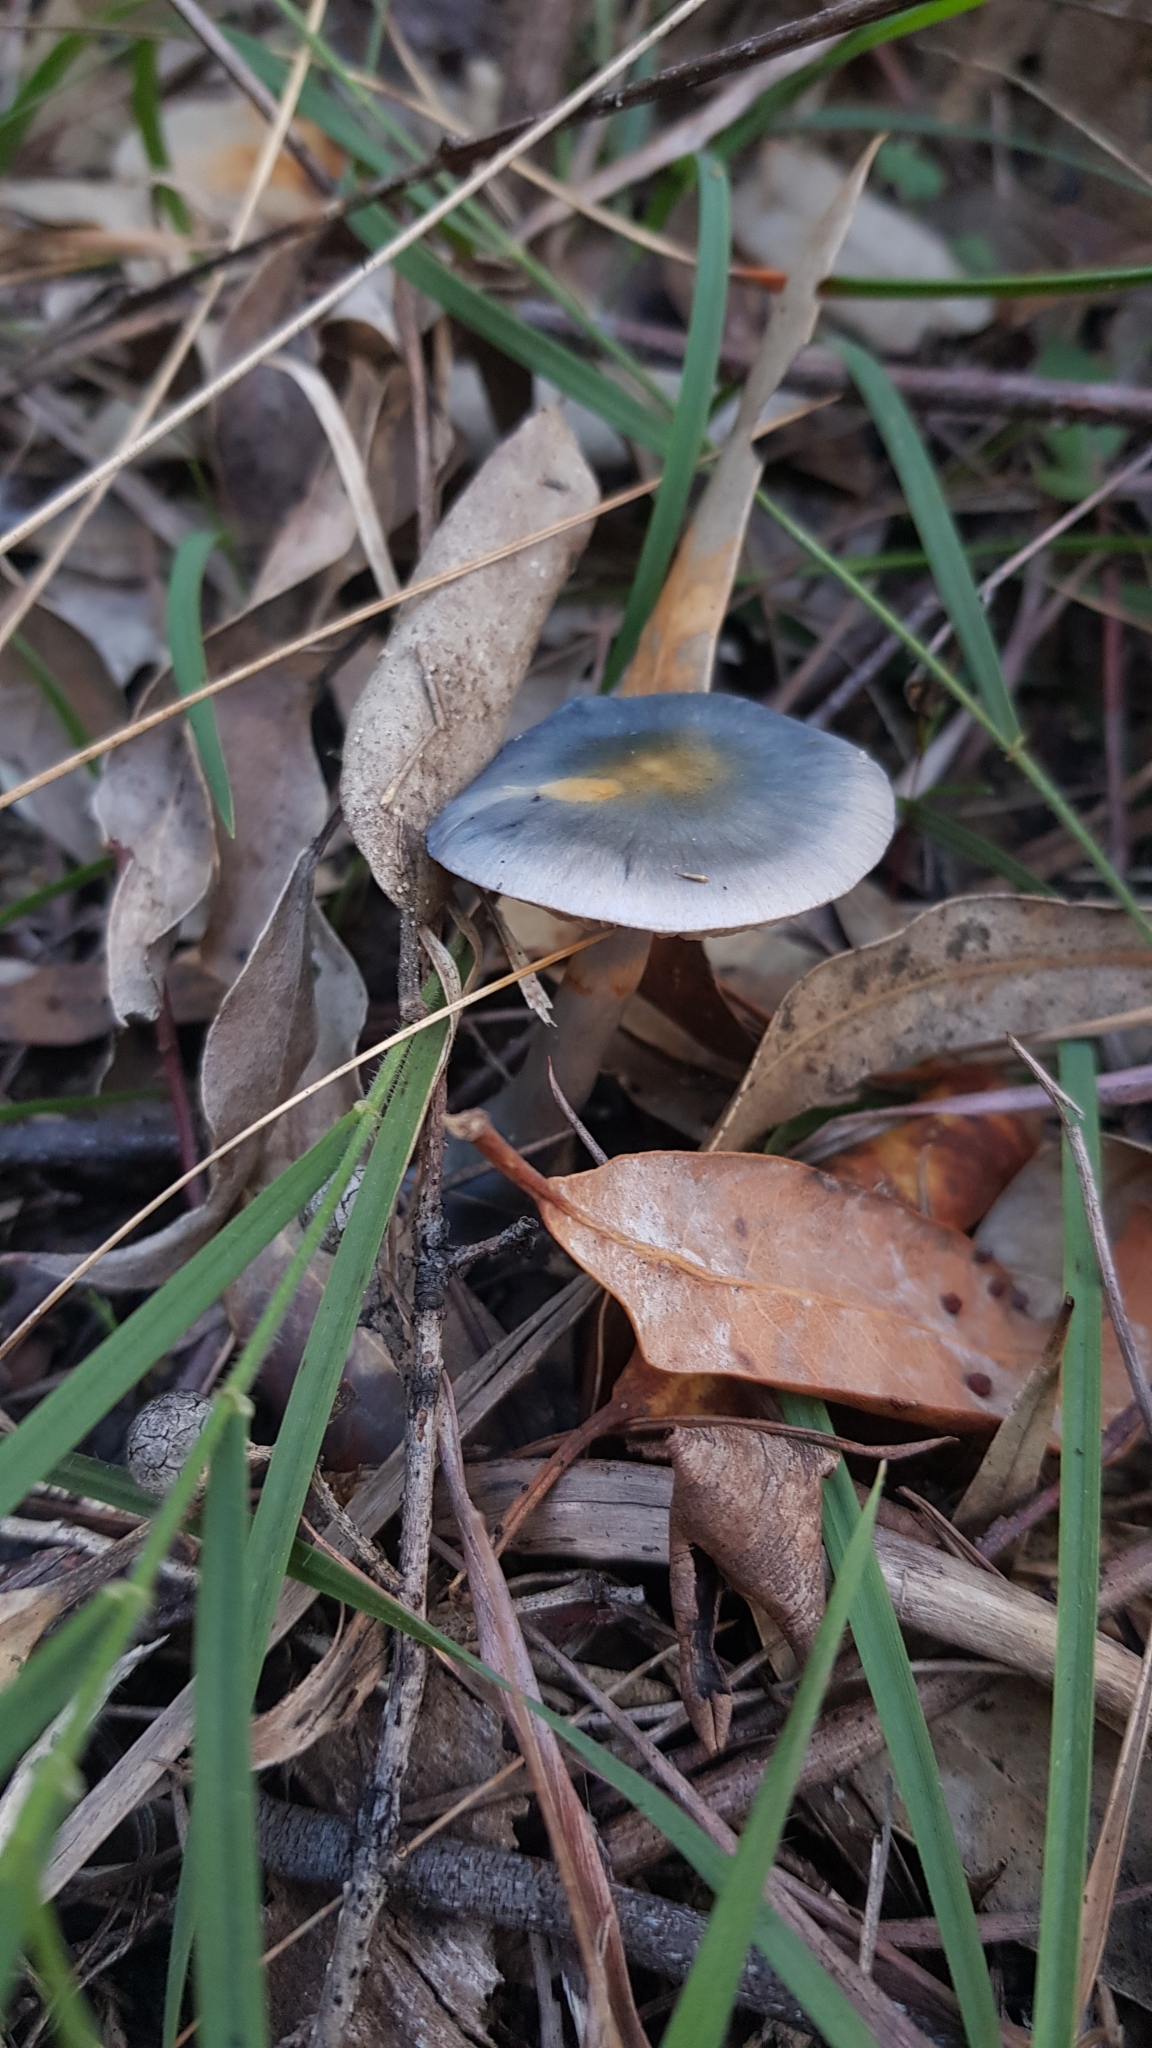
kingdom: Fungi
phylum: Basidiomycota
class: Agaricomycetes
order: Agaricales
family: Cortinariaceae
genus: Cortinarius
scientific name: Cortinarius rotundisporus
